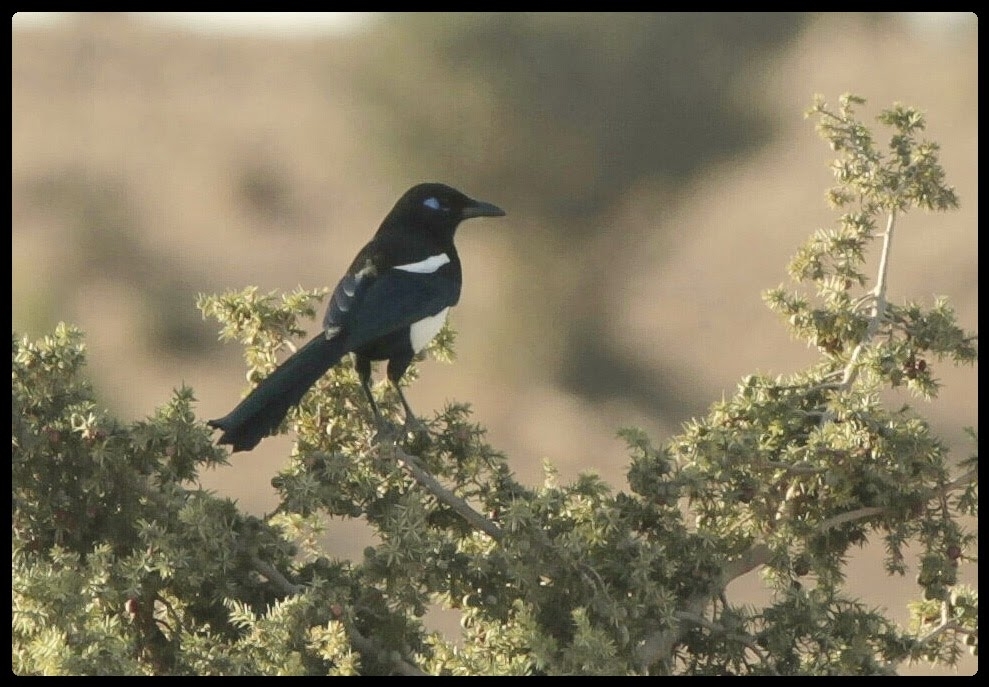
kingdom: Animalia
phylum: Chordata
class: Aves
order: Passeriformes
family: Corvidae
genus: Pica
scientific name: Pica mauritanica
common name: Maghreb magpie
